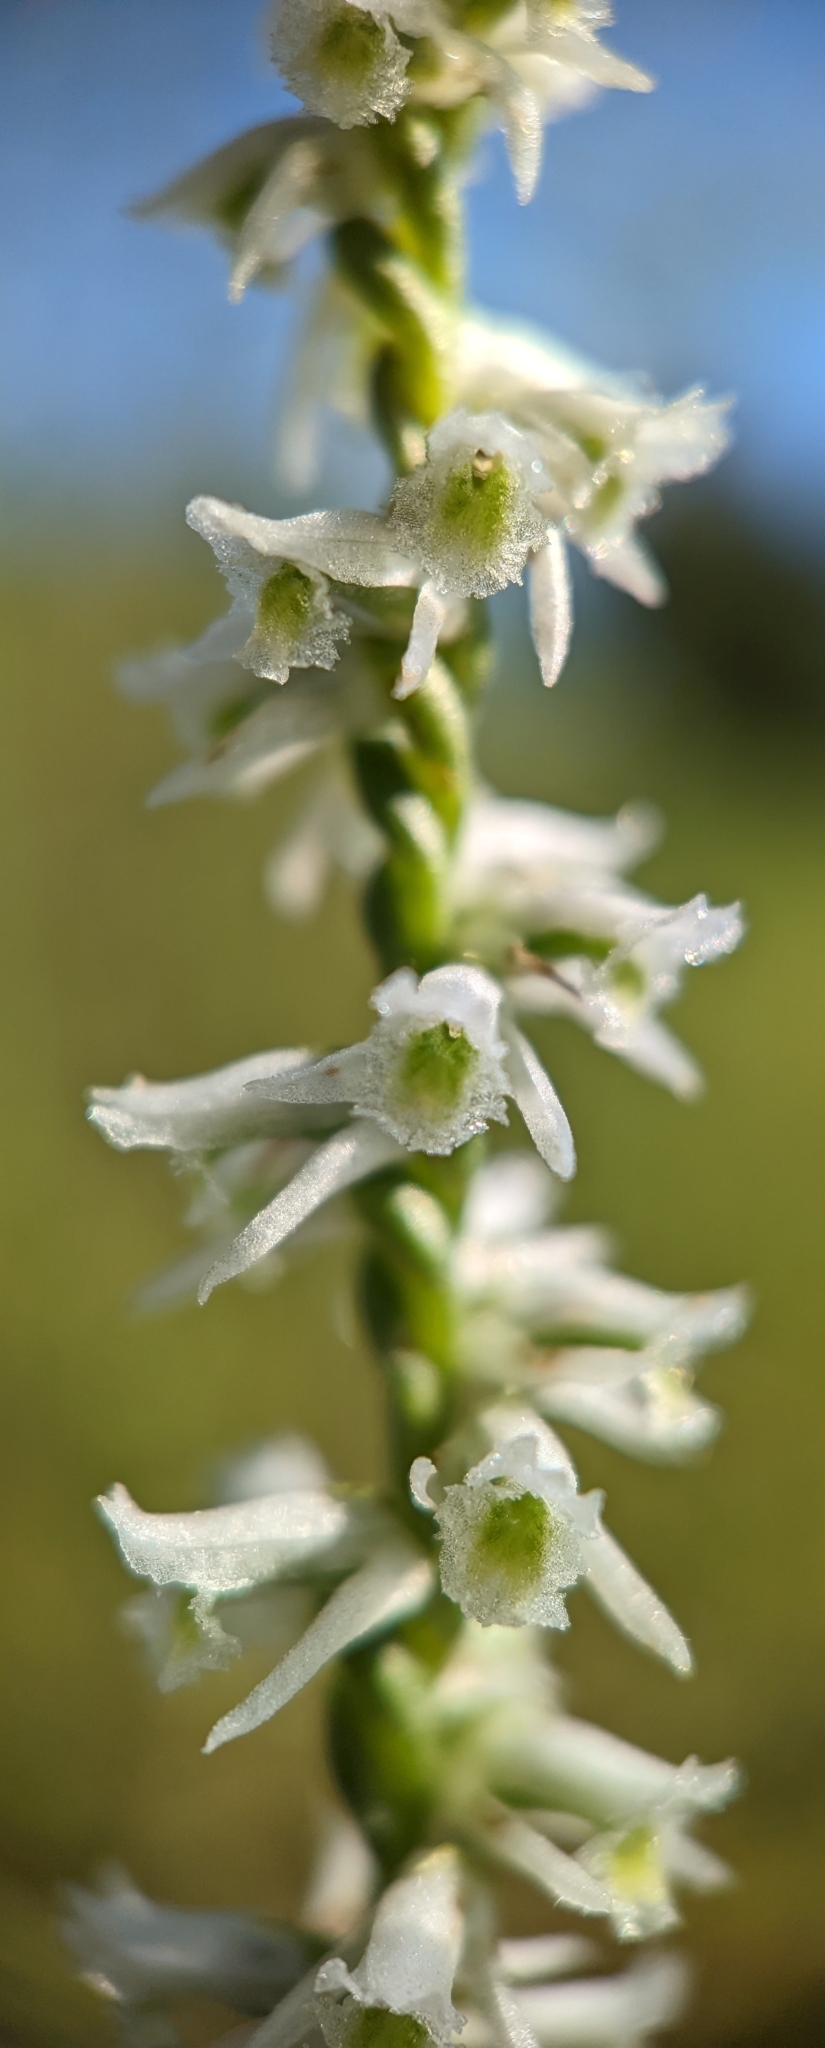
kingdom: Plantae
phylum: Tracheophyta
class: Liliopsida
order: Asparagales
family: Orchidaceae
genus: Spiranthes
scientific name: Spiranthes lacera
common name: Northern slender ladies'-tresses
